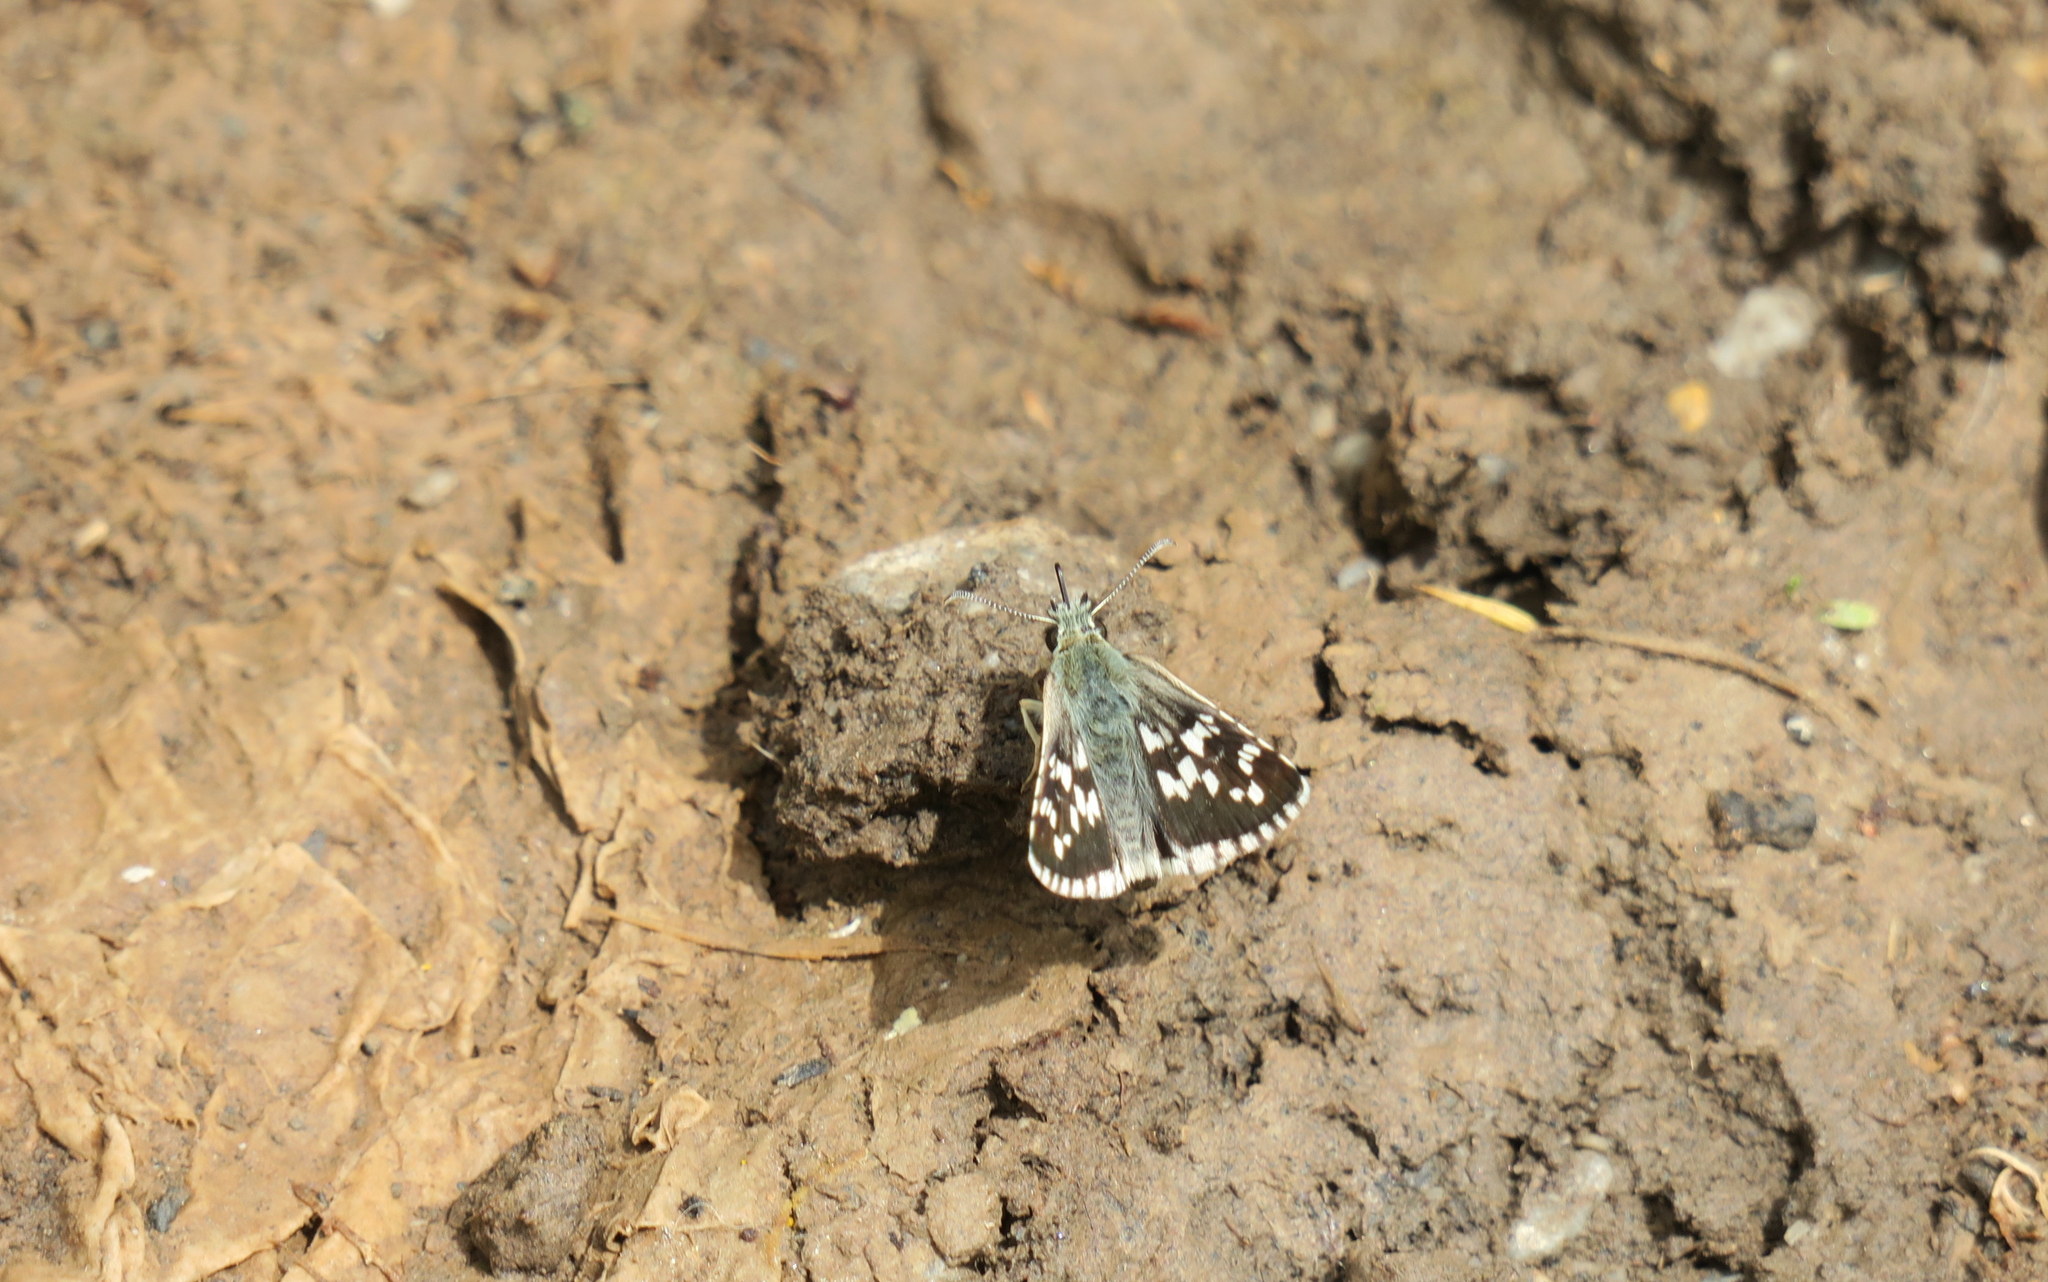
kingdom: Animalia
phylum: Arthropoda
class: Insecta
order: Lepidoptera
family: Hesperiidae
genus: Pyrgus
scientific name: Pyrgus cinarae
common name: Sandy grizzled skipper
